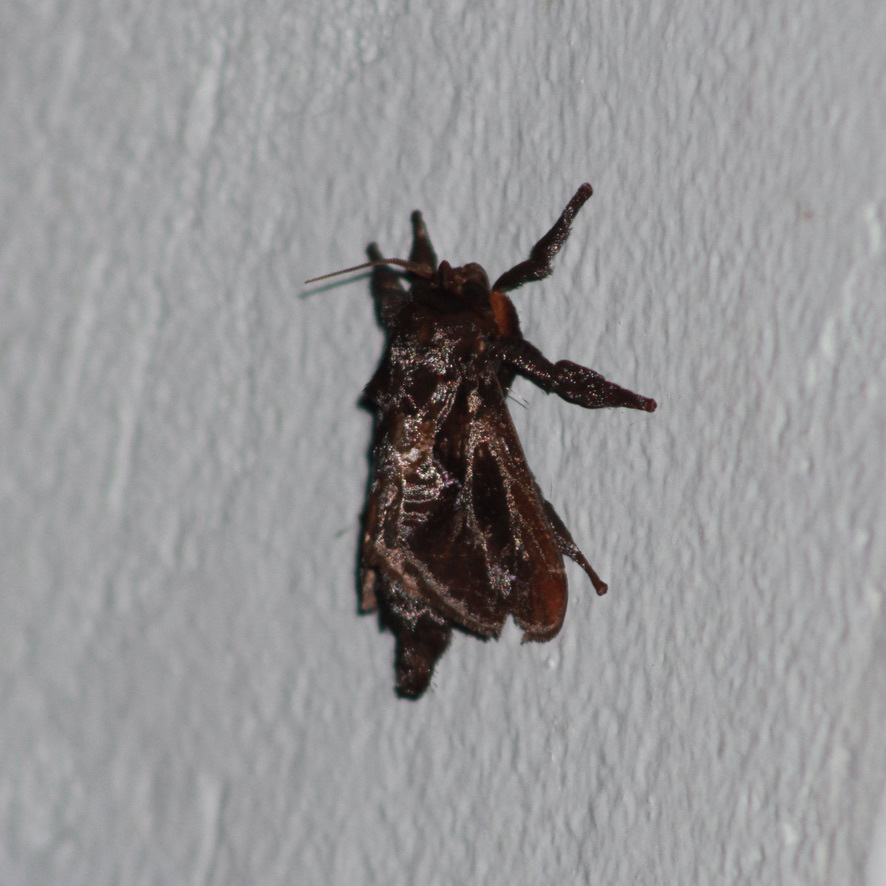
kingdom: Animalia
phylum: Arthropoda
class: Insecta
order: Lepidoptera
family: Limacodidae
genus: Sibine
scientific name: Sibine nesea
